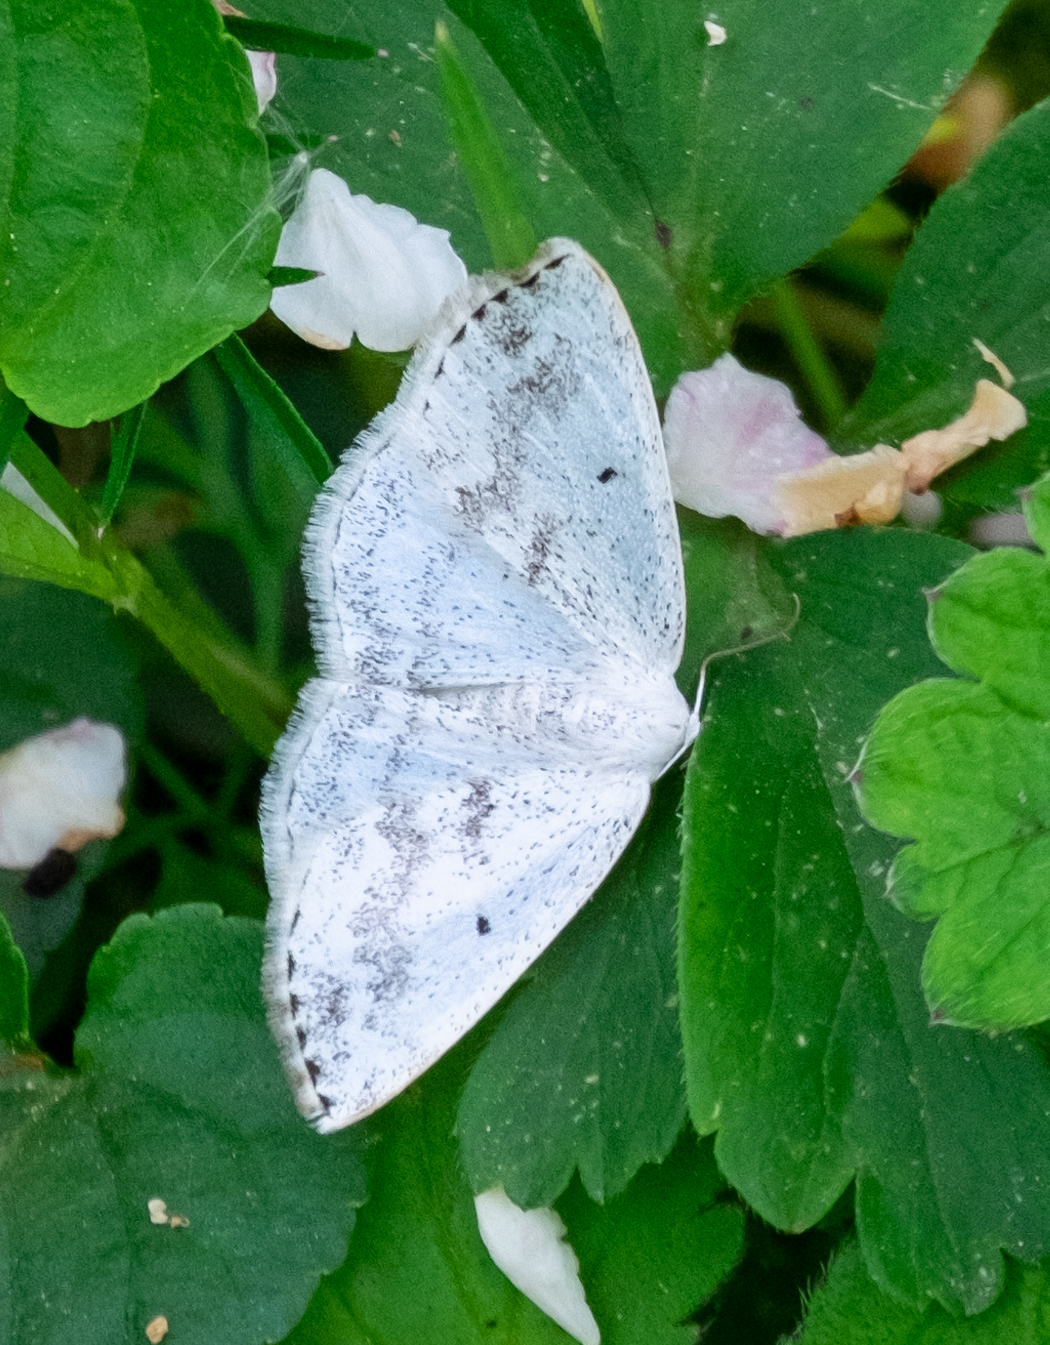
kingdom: Animalia
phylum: Arthropoda
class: Insecta
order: Lepidoptera
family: Geometridae
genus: Lomographa
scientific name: Lomographa temerata
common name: Clouded silver
